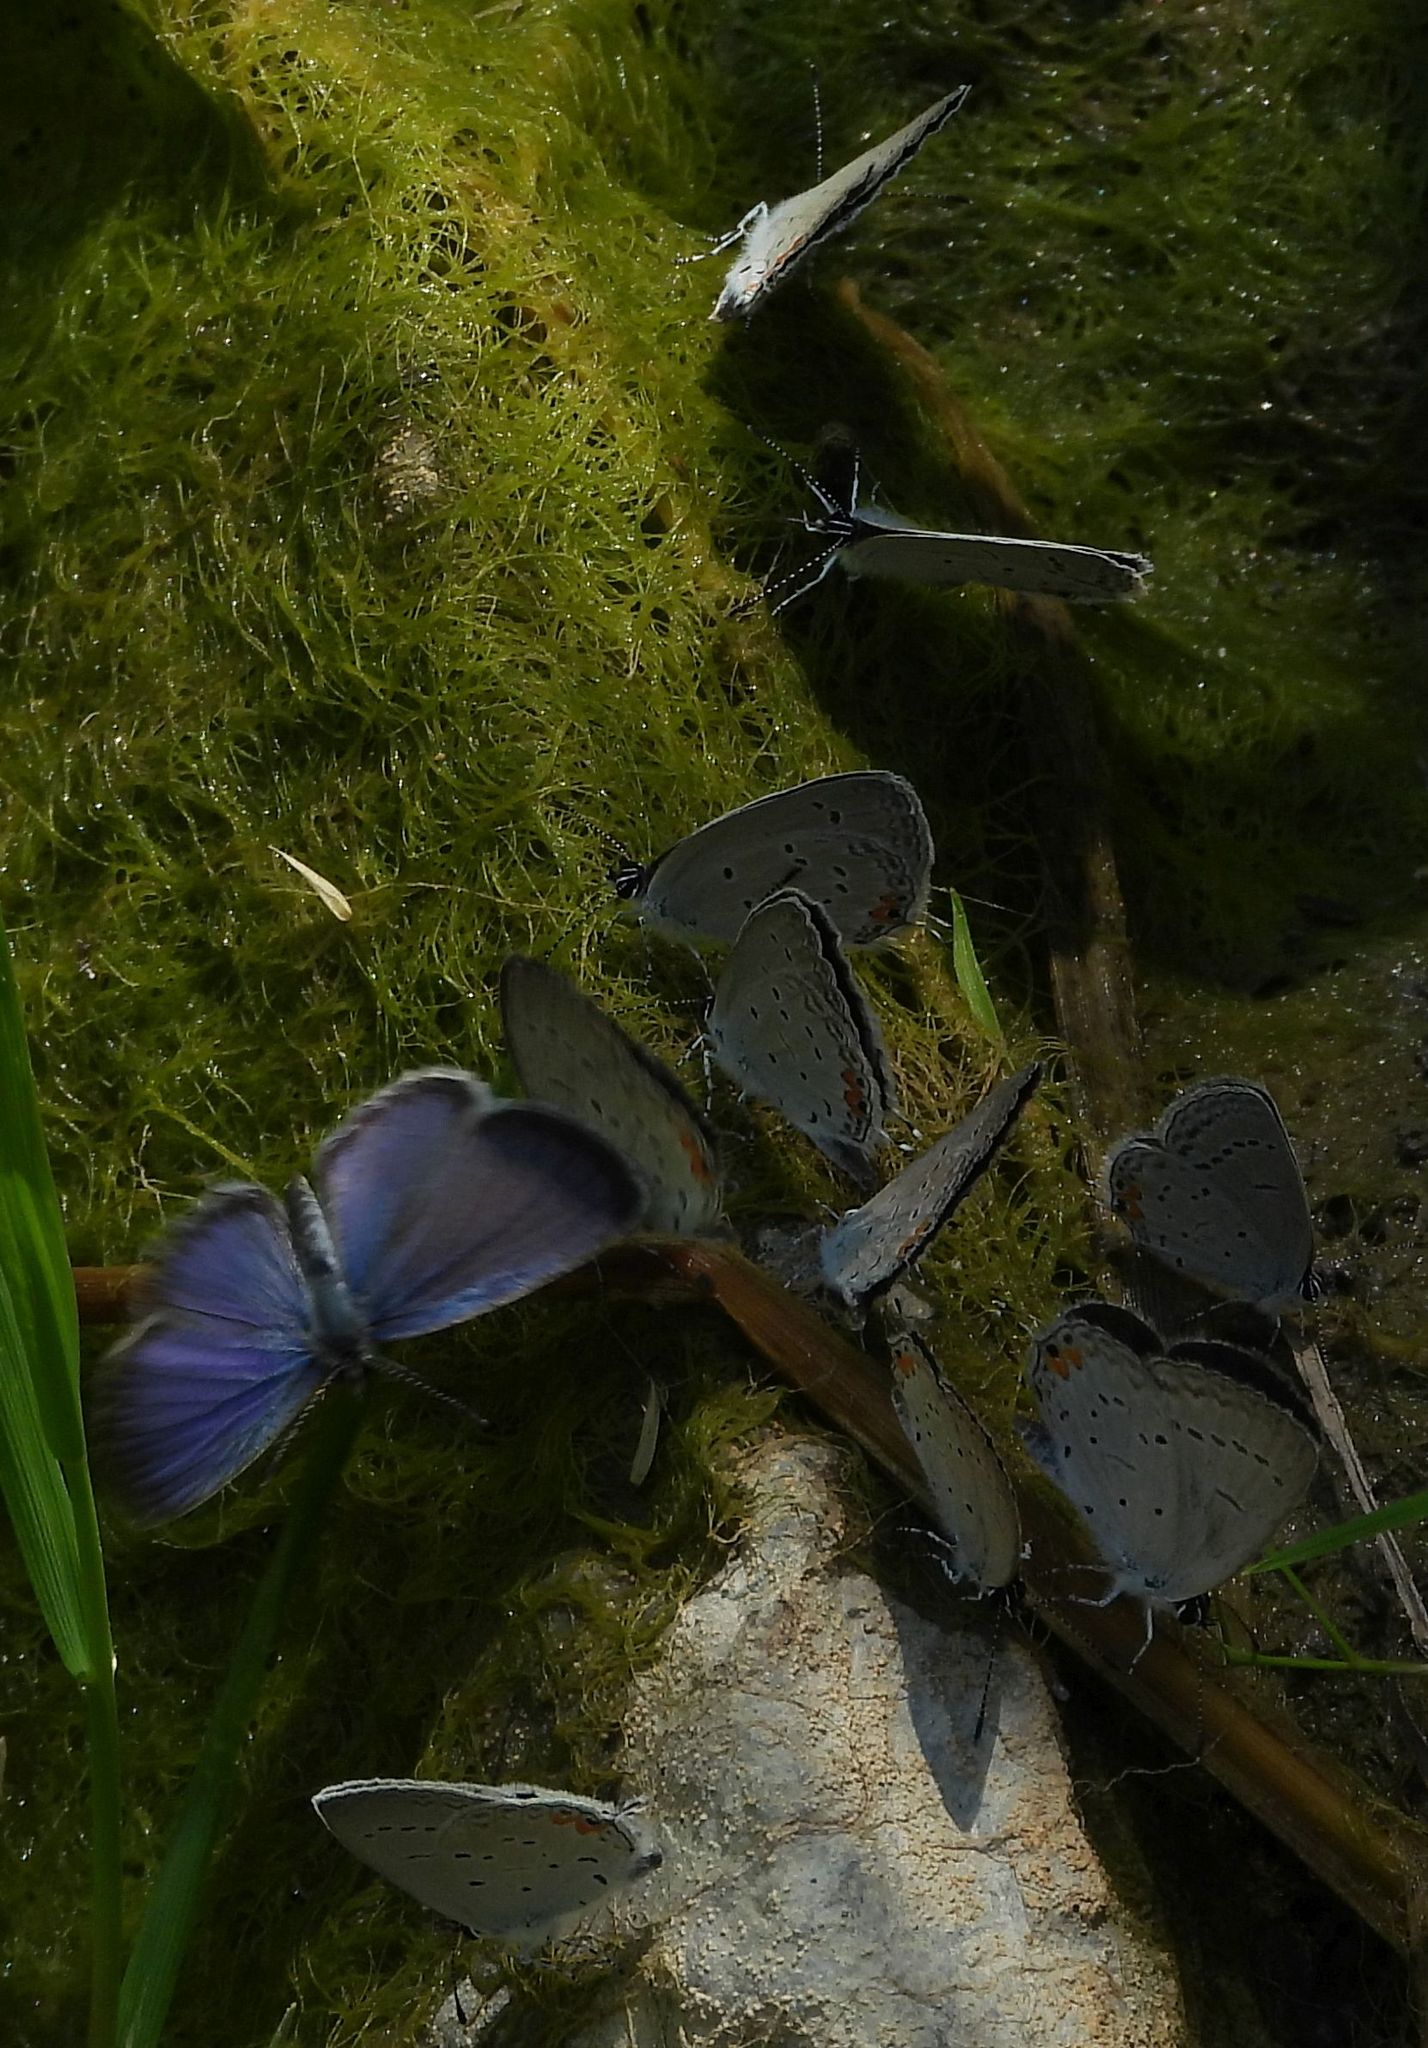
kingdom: Animalia
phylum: Arthropoda
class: Insecta
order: Lepidoptera
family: Lycaenidae
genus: Elkalyce
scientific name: Elkalyce comyntas
